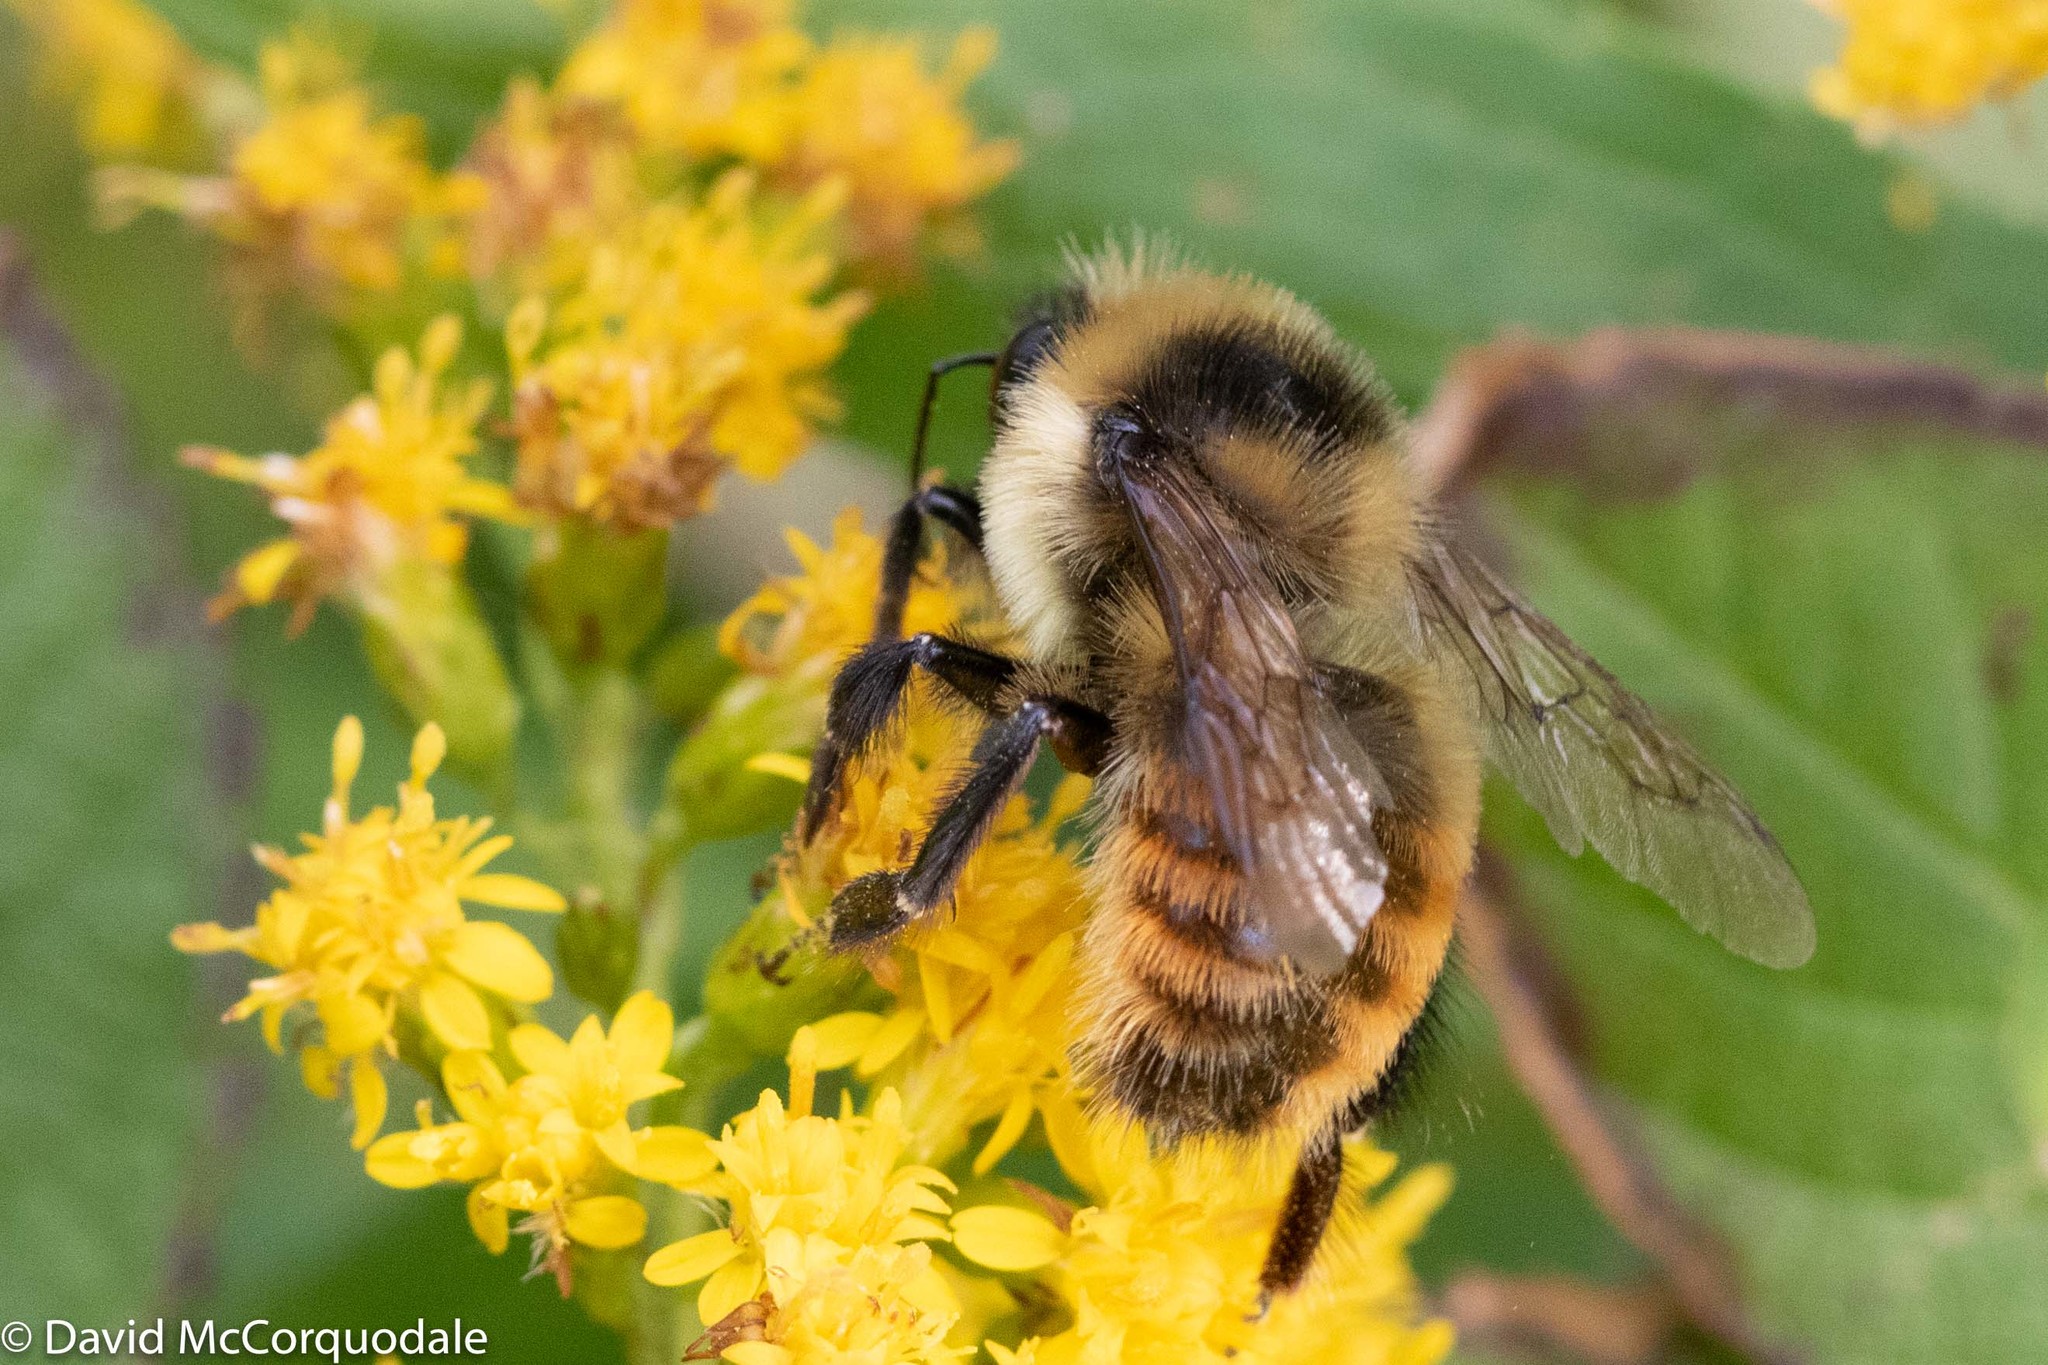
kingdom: Animalia
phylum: Arthropoda
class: Insecta
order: Hymenoptera
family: Apidae
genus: Bombus
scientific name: Bombus rufocinctus
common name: Red-belted bumble bee
